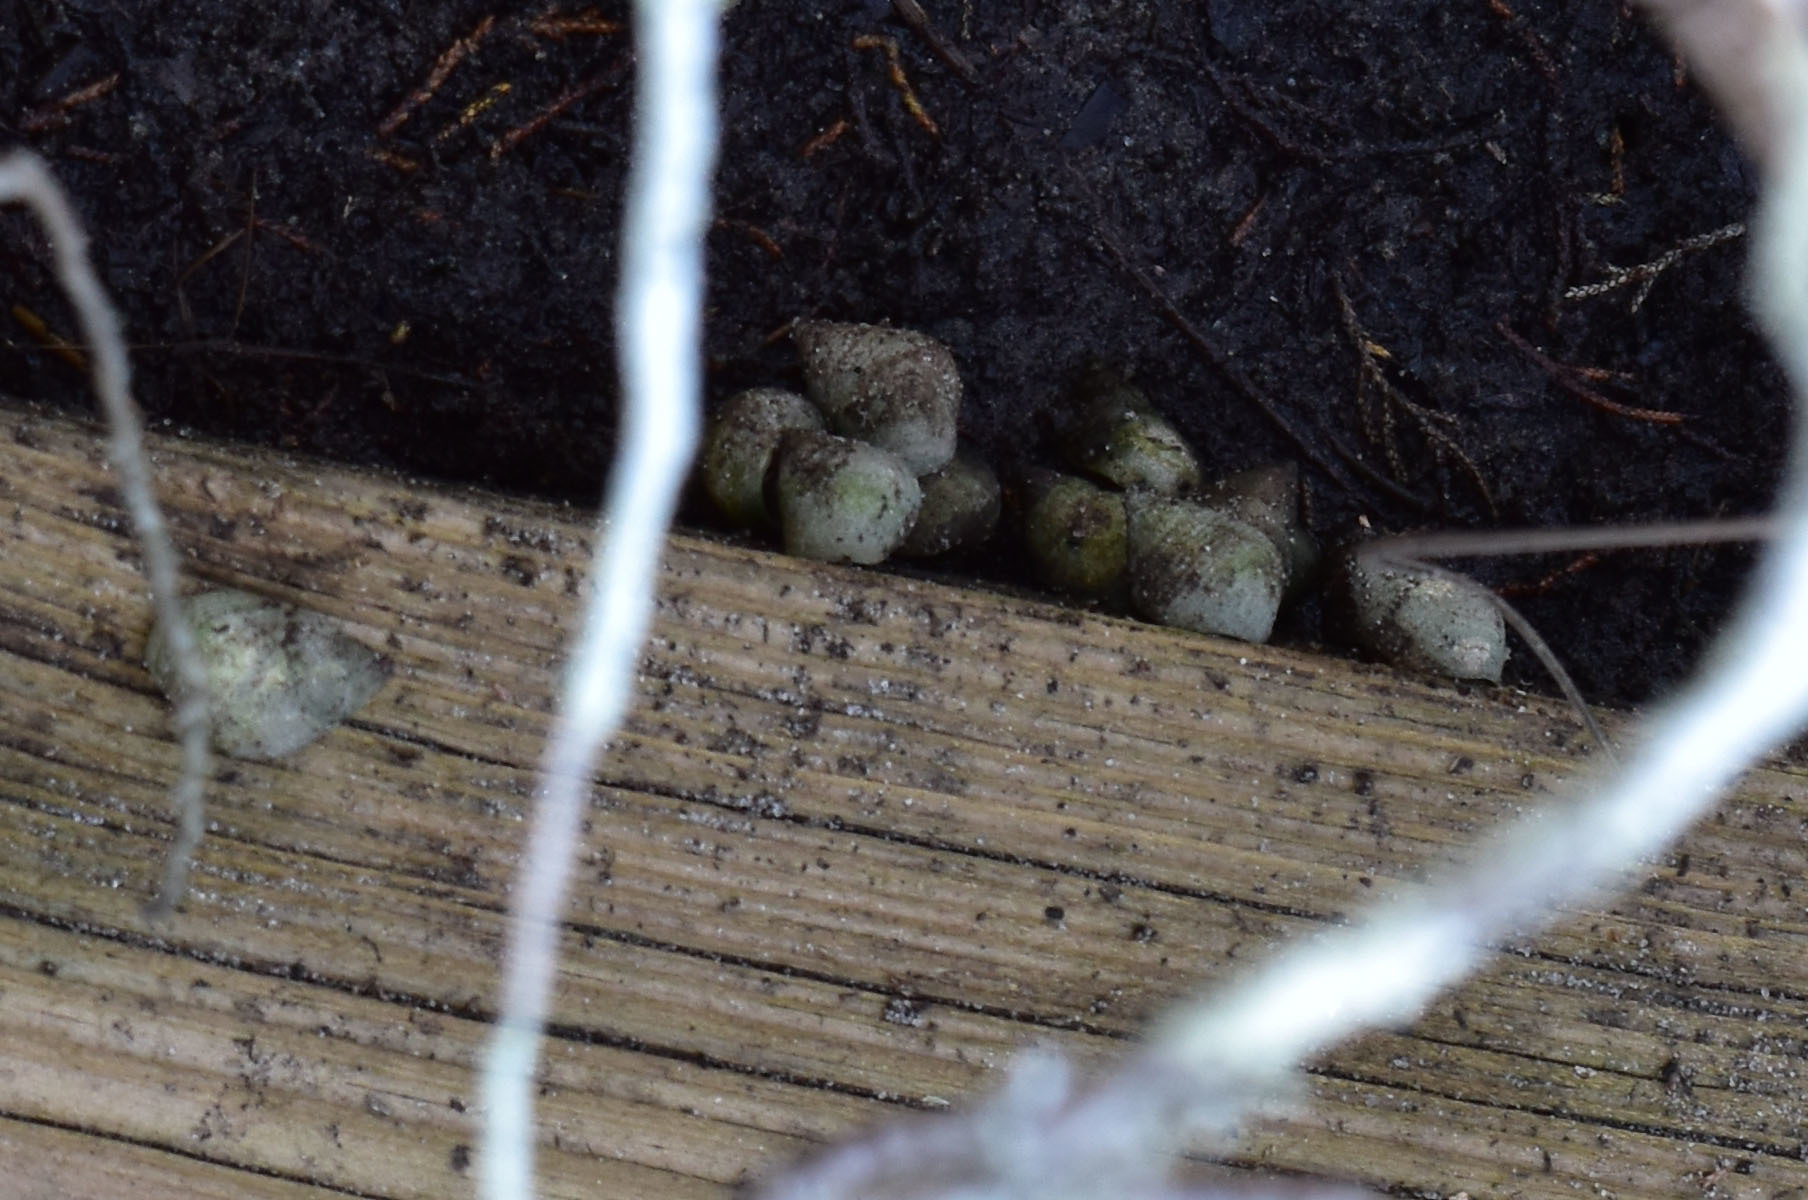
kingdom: Animalia
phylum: Mollusca
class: Gastropoda
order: Littorinimorpha
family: Littorinidae
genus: Littoraria
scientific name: Littoraria irrorata
